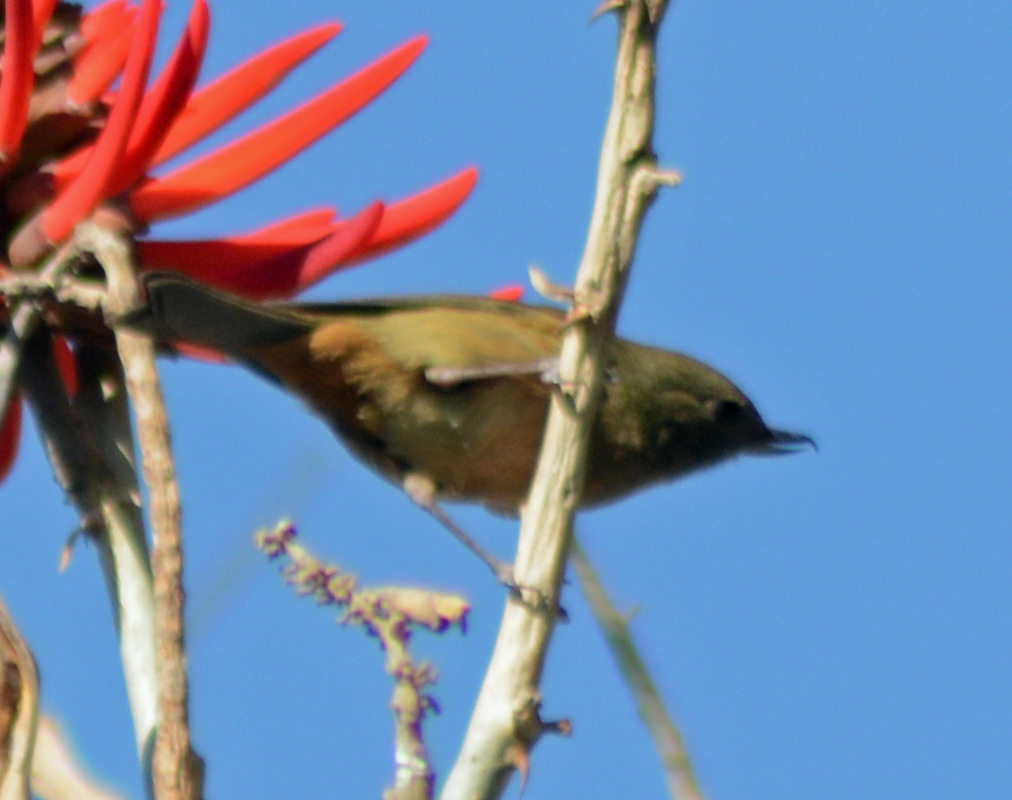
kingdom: Animalia
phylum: Chordata
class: Aves
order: Passeriformes
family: Thraupidae
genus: Diglossa
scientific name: Diglossa baritula
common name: Cinnamon-bellied flowerpiercer
